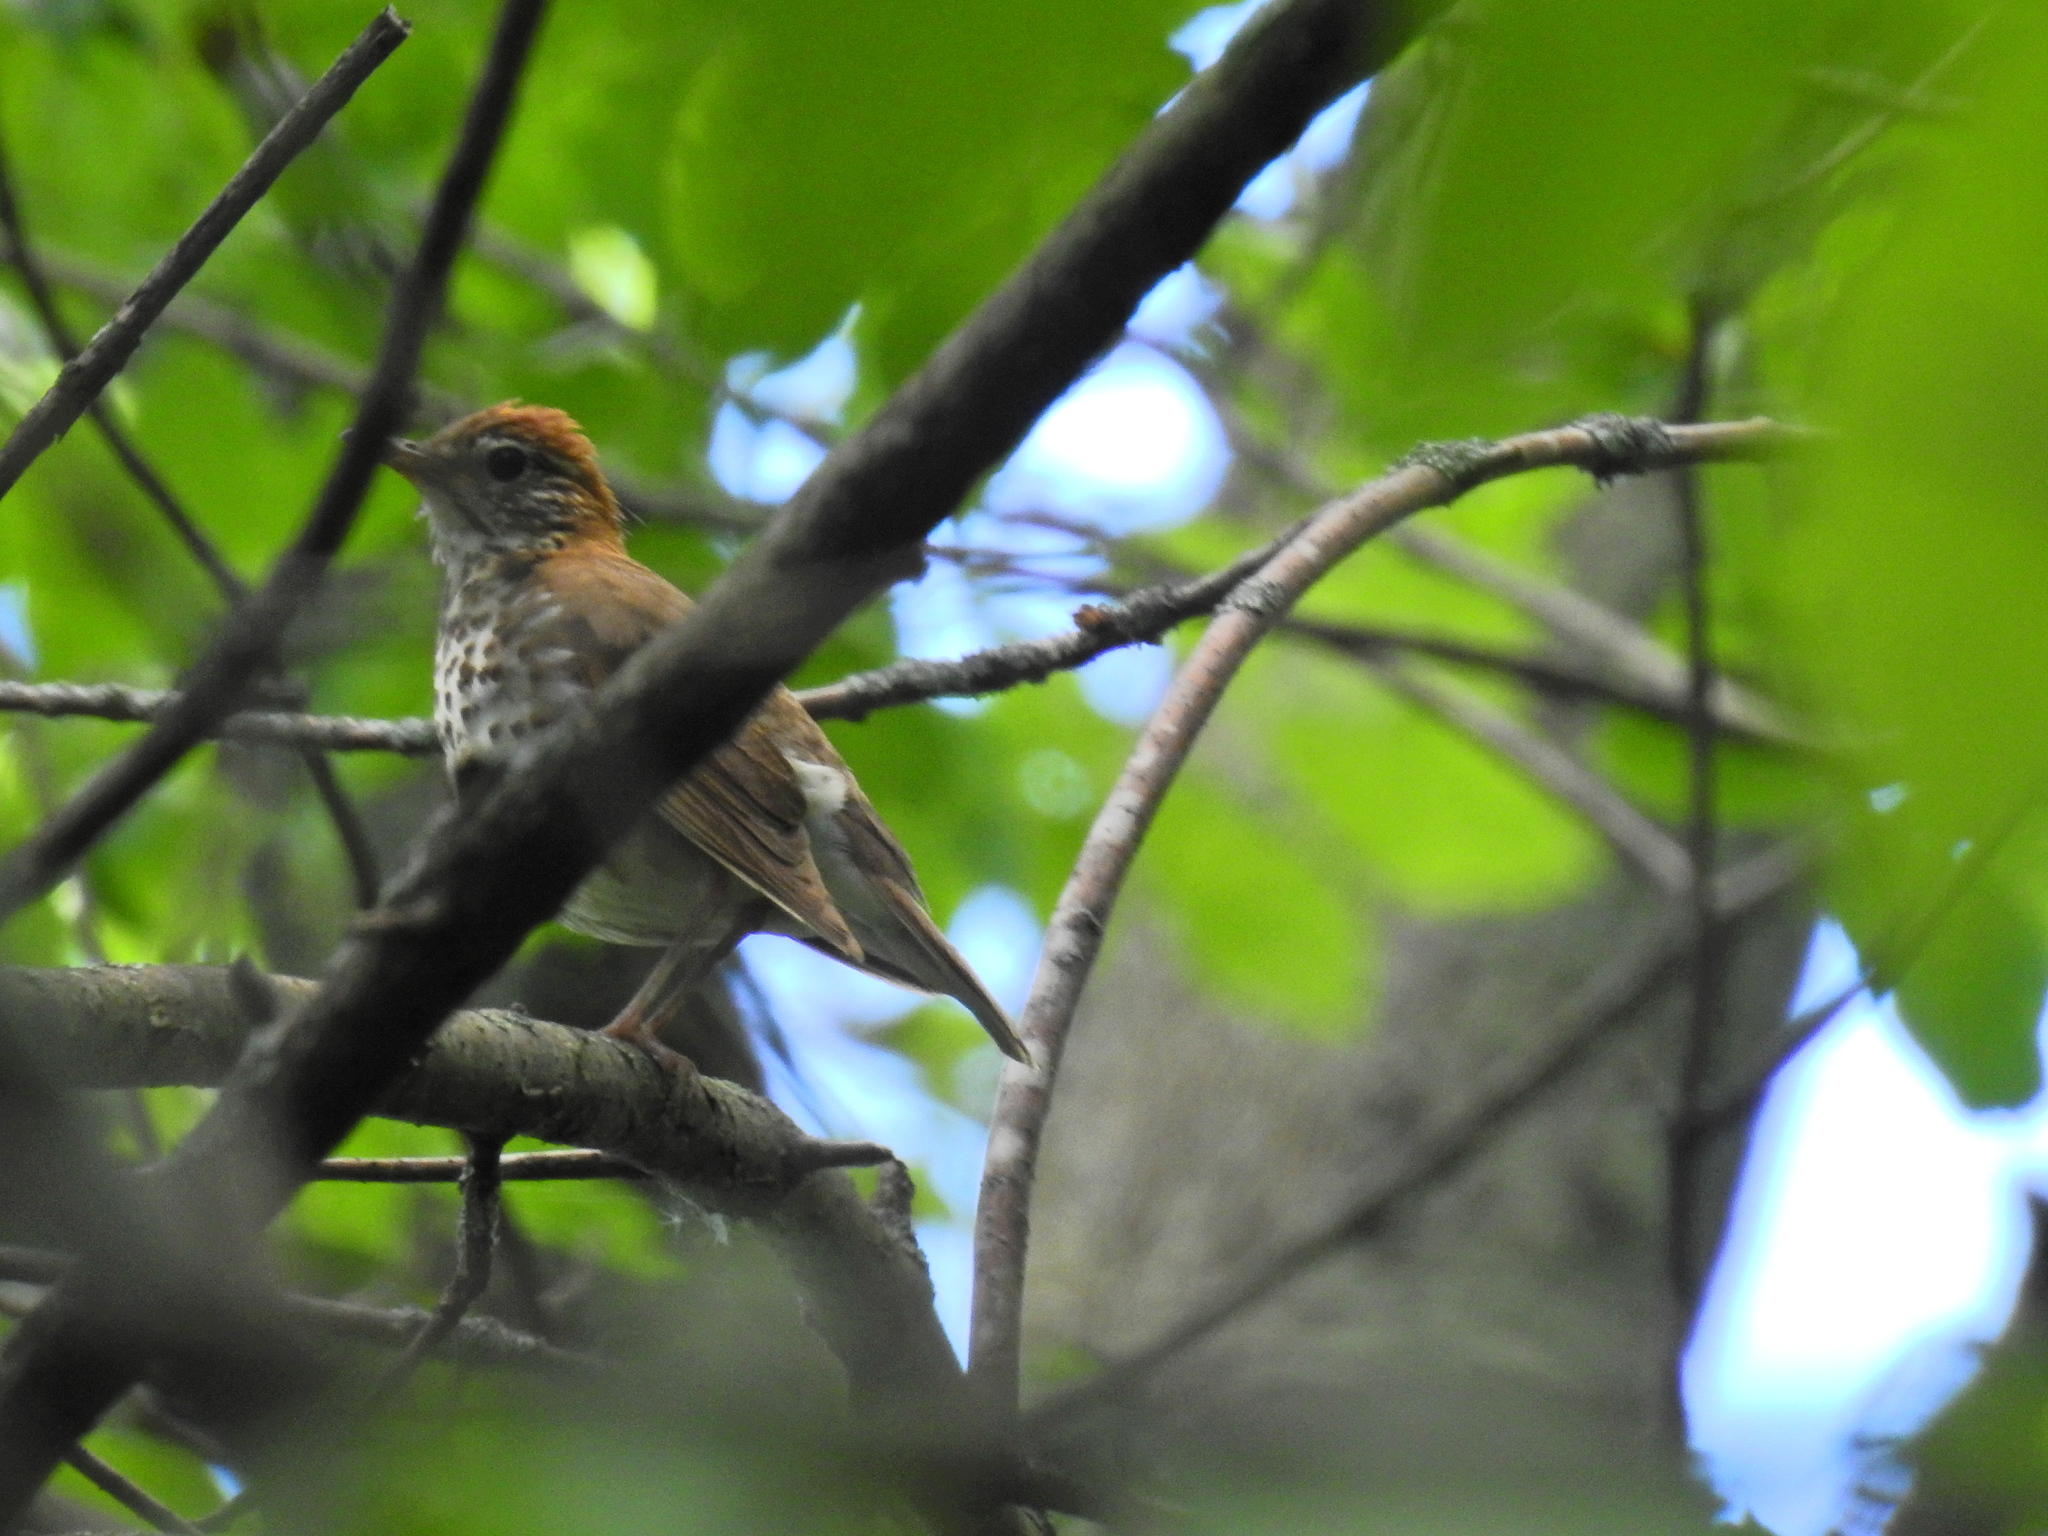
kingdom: Animalia
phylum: Chordata
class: Aves
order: Passeriformes
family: Turdidae
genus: Hylocichla
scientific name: Hylocichla mustelina
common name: Wood thrush
